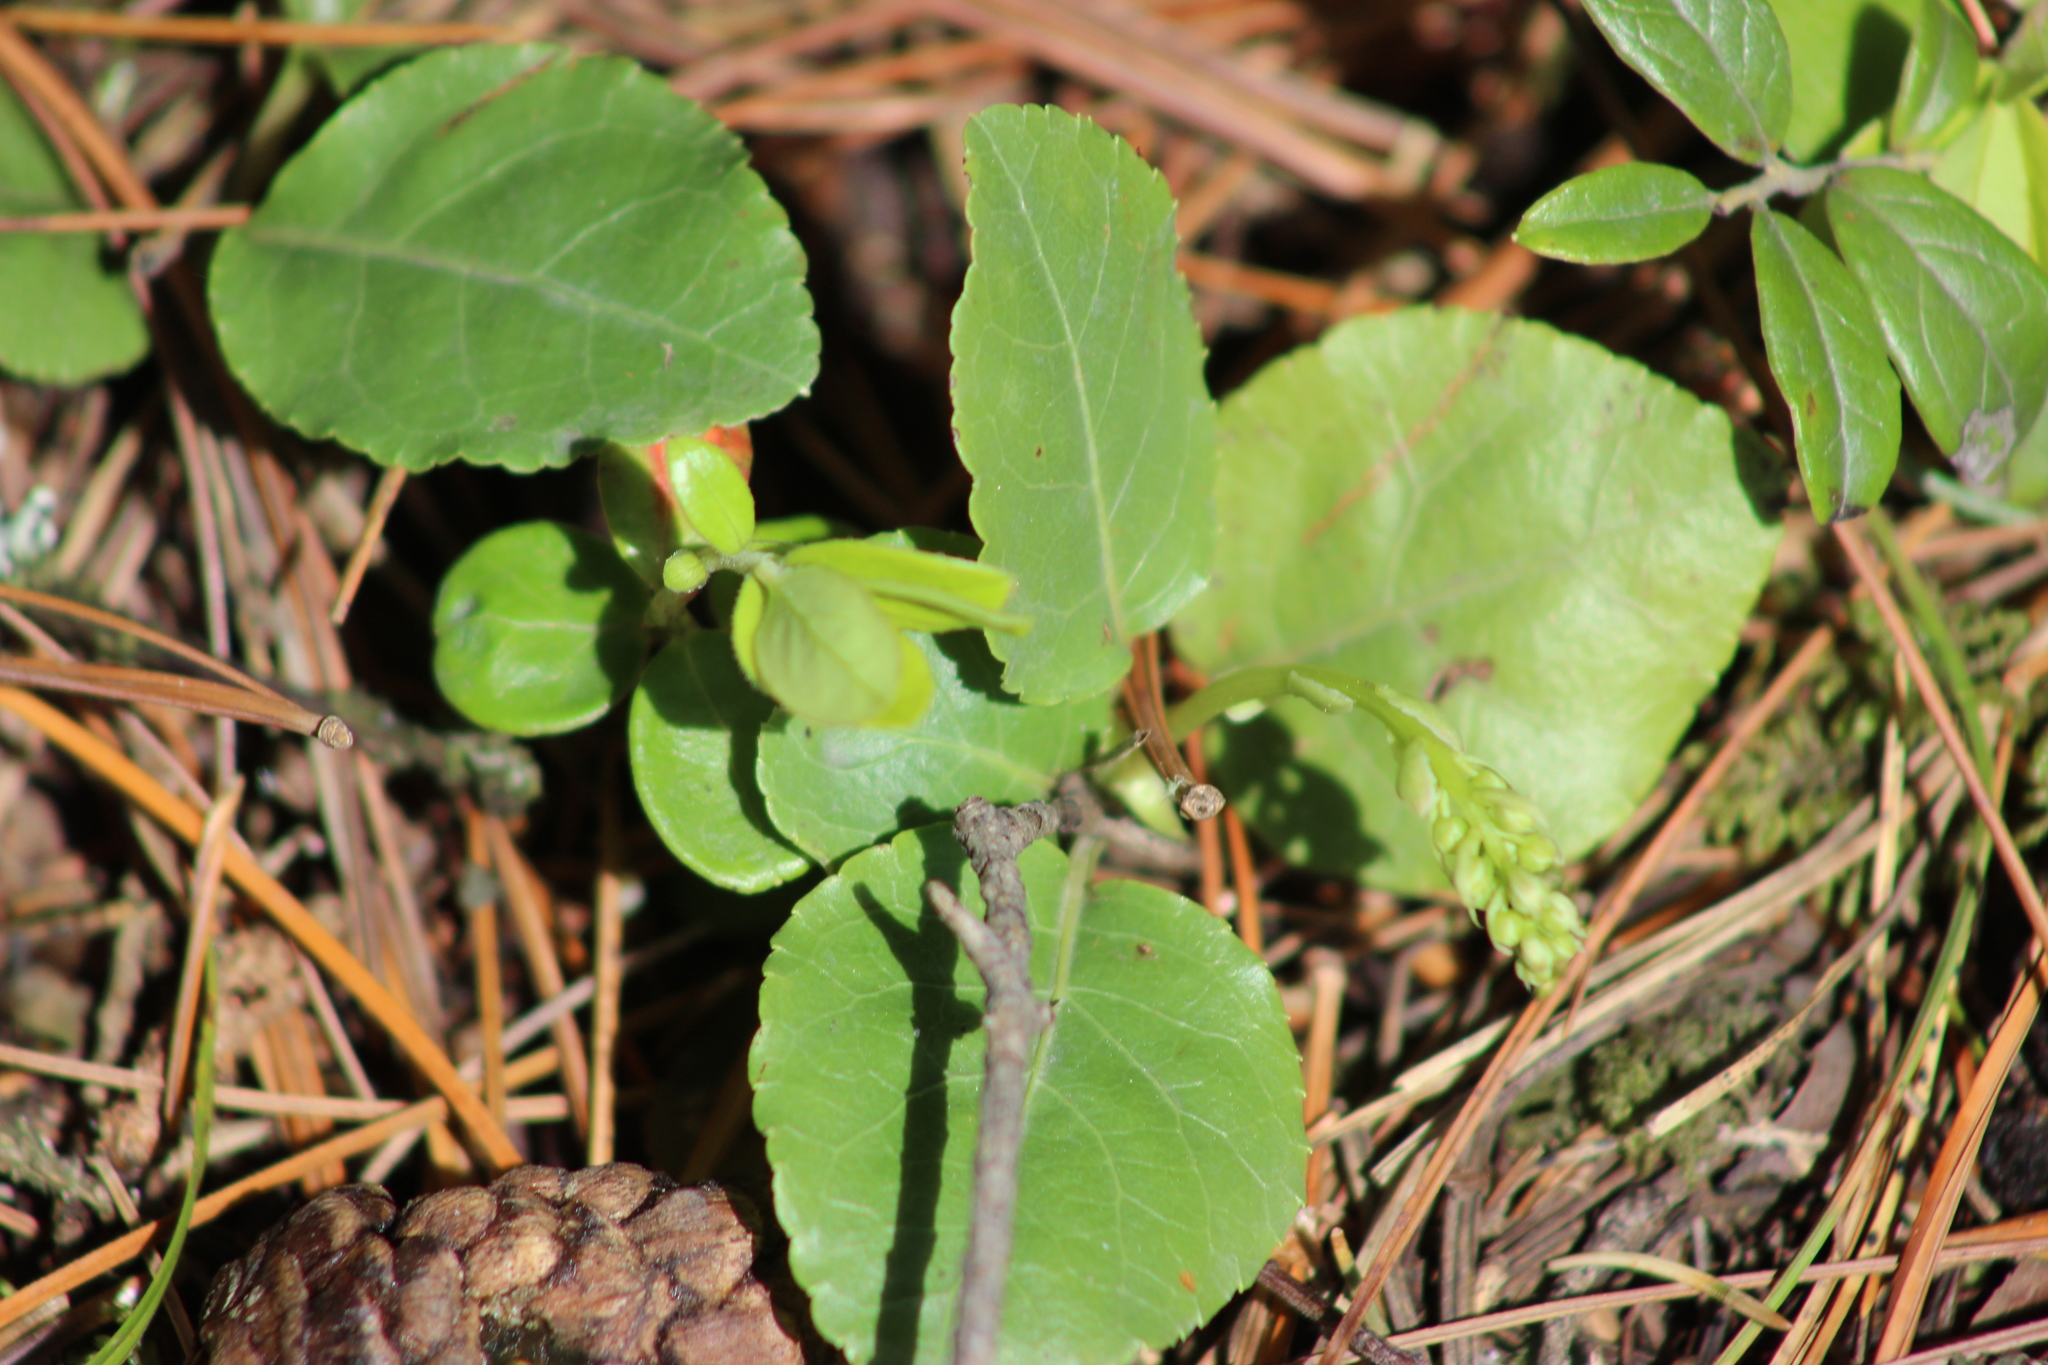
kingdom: Plantae
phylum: Tracheophyta
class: Magnoliopsida
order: Ericales
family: Ericaceae
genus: Orthilia
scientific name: Orthilia secunda
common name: One-sided orthilia
